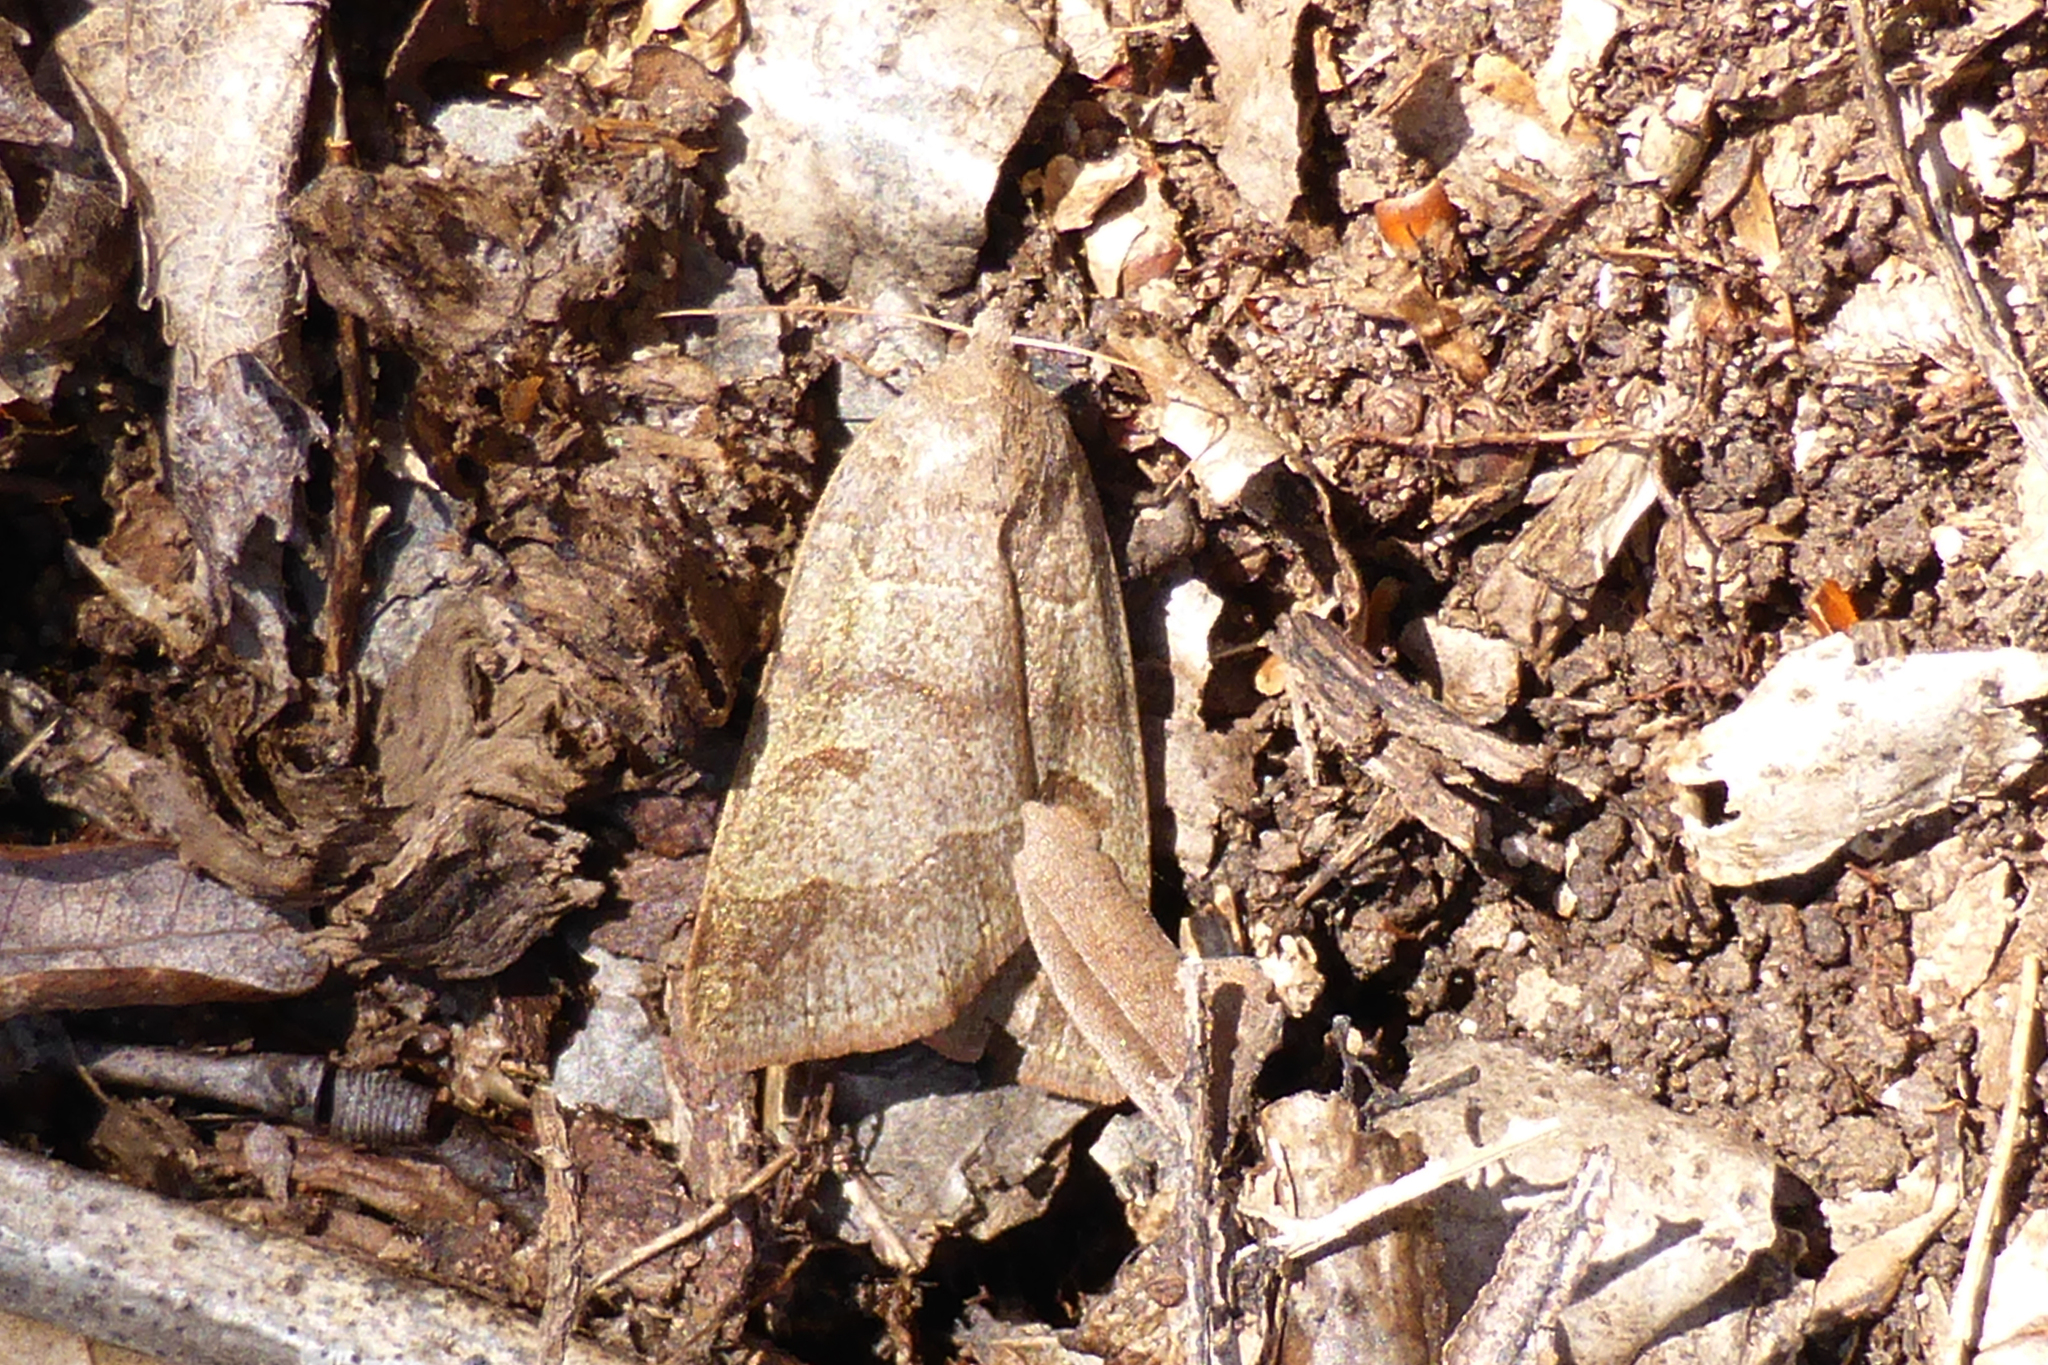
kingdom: Animalia
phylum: Arthropoda
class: Insecta
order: Lepidoptera
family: Erebidae
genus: Phoberia
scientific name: Phoberia atomaris
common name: Common oak moth
